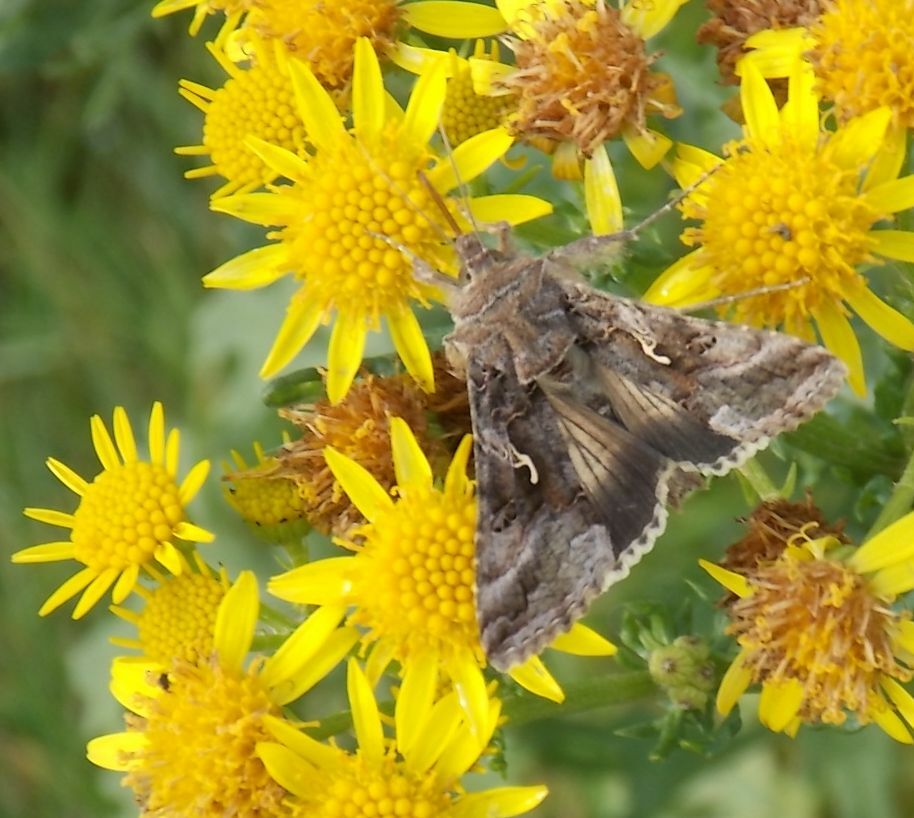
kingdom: Animalia
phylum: Arthropoda
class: Insecta
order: Lepidoptera
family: Noctuidae
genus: Autographa
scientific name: Autographa gamma
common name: Silver y
